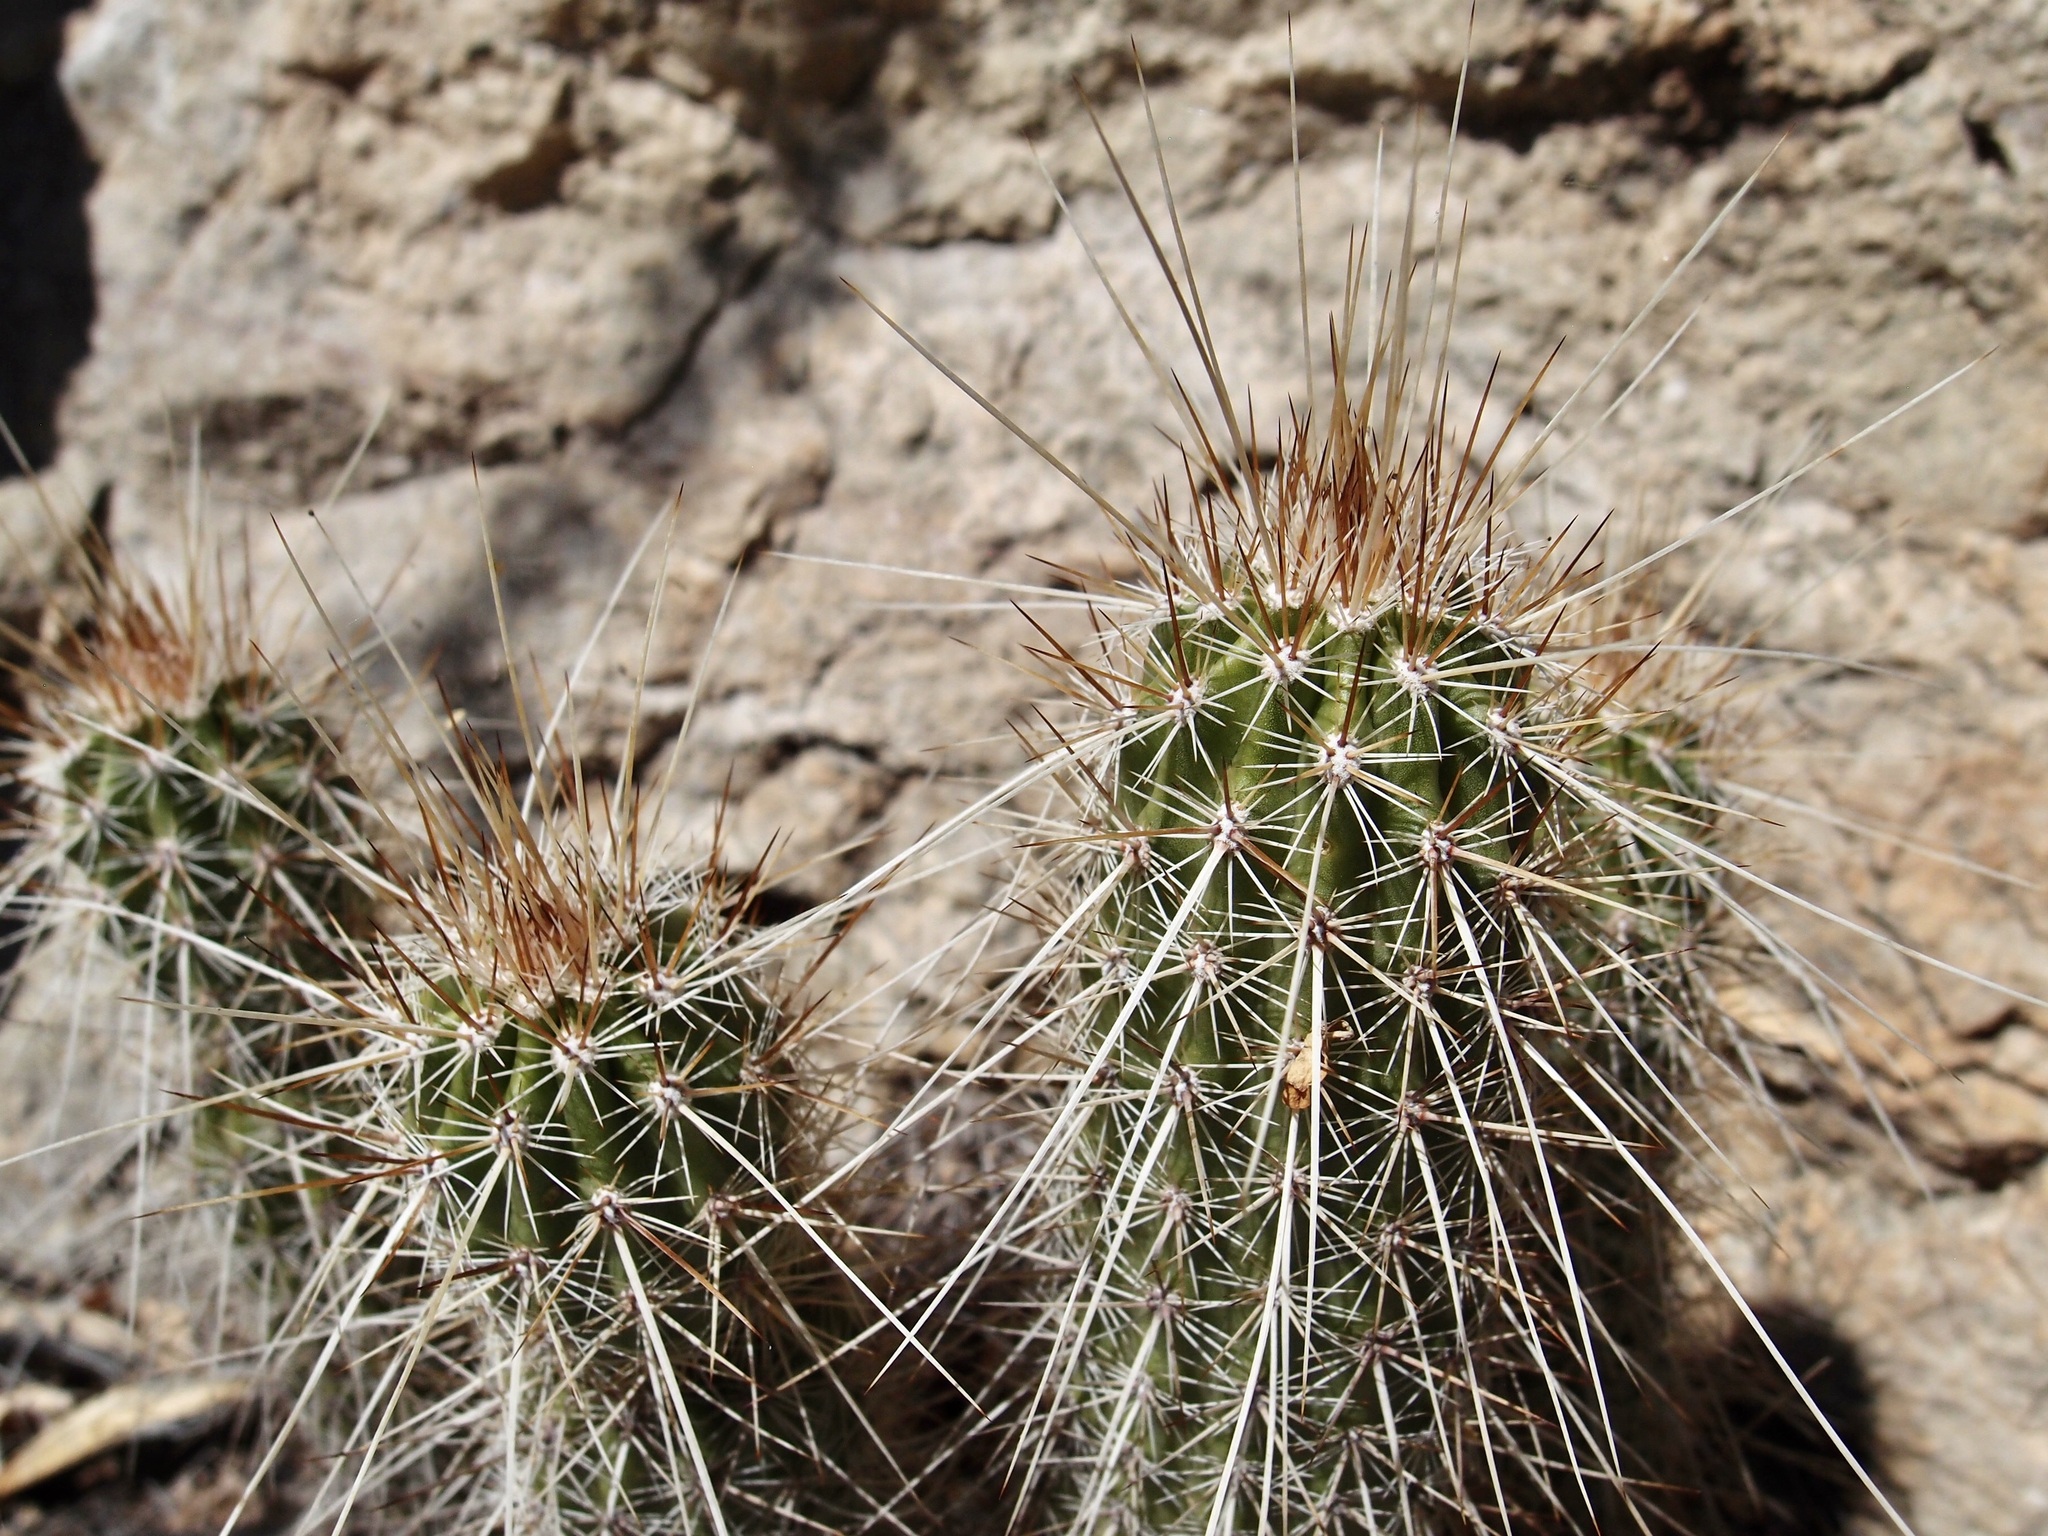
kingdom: Plantae
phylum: Tracheophyta
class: Magnoliopsida
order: Caryophyllales
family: Cactaceae
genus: Echinocereus
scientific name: Echinocereus llanurensis
